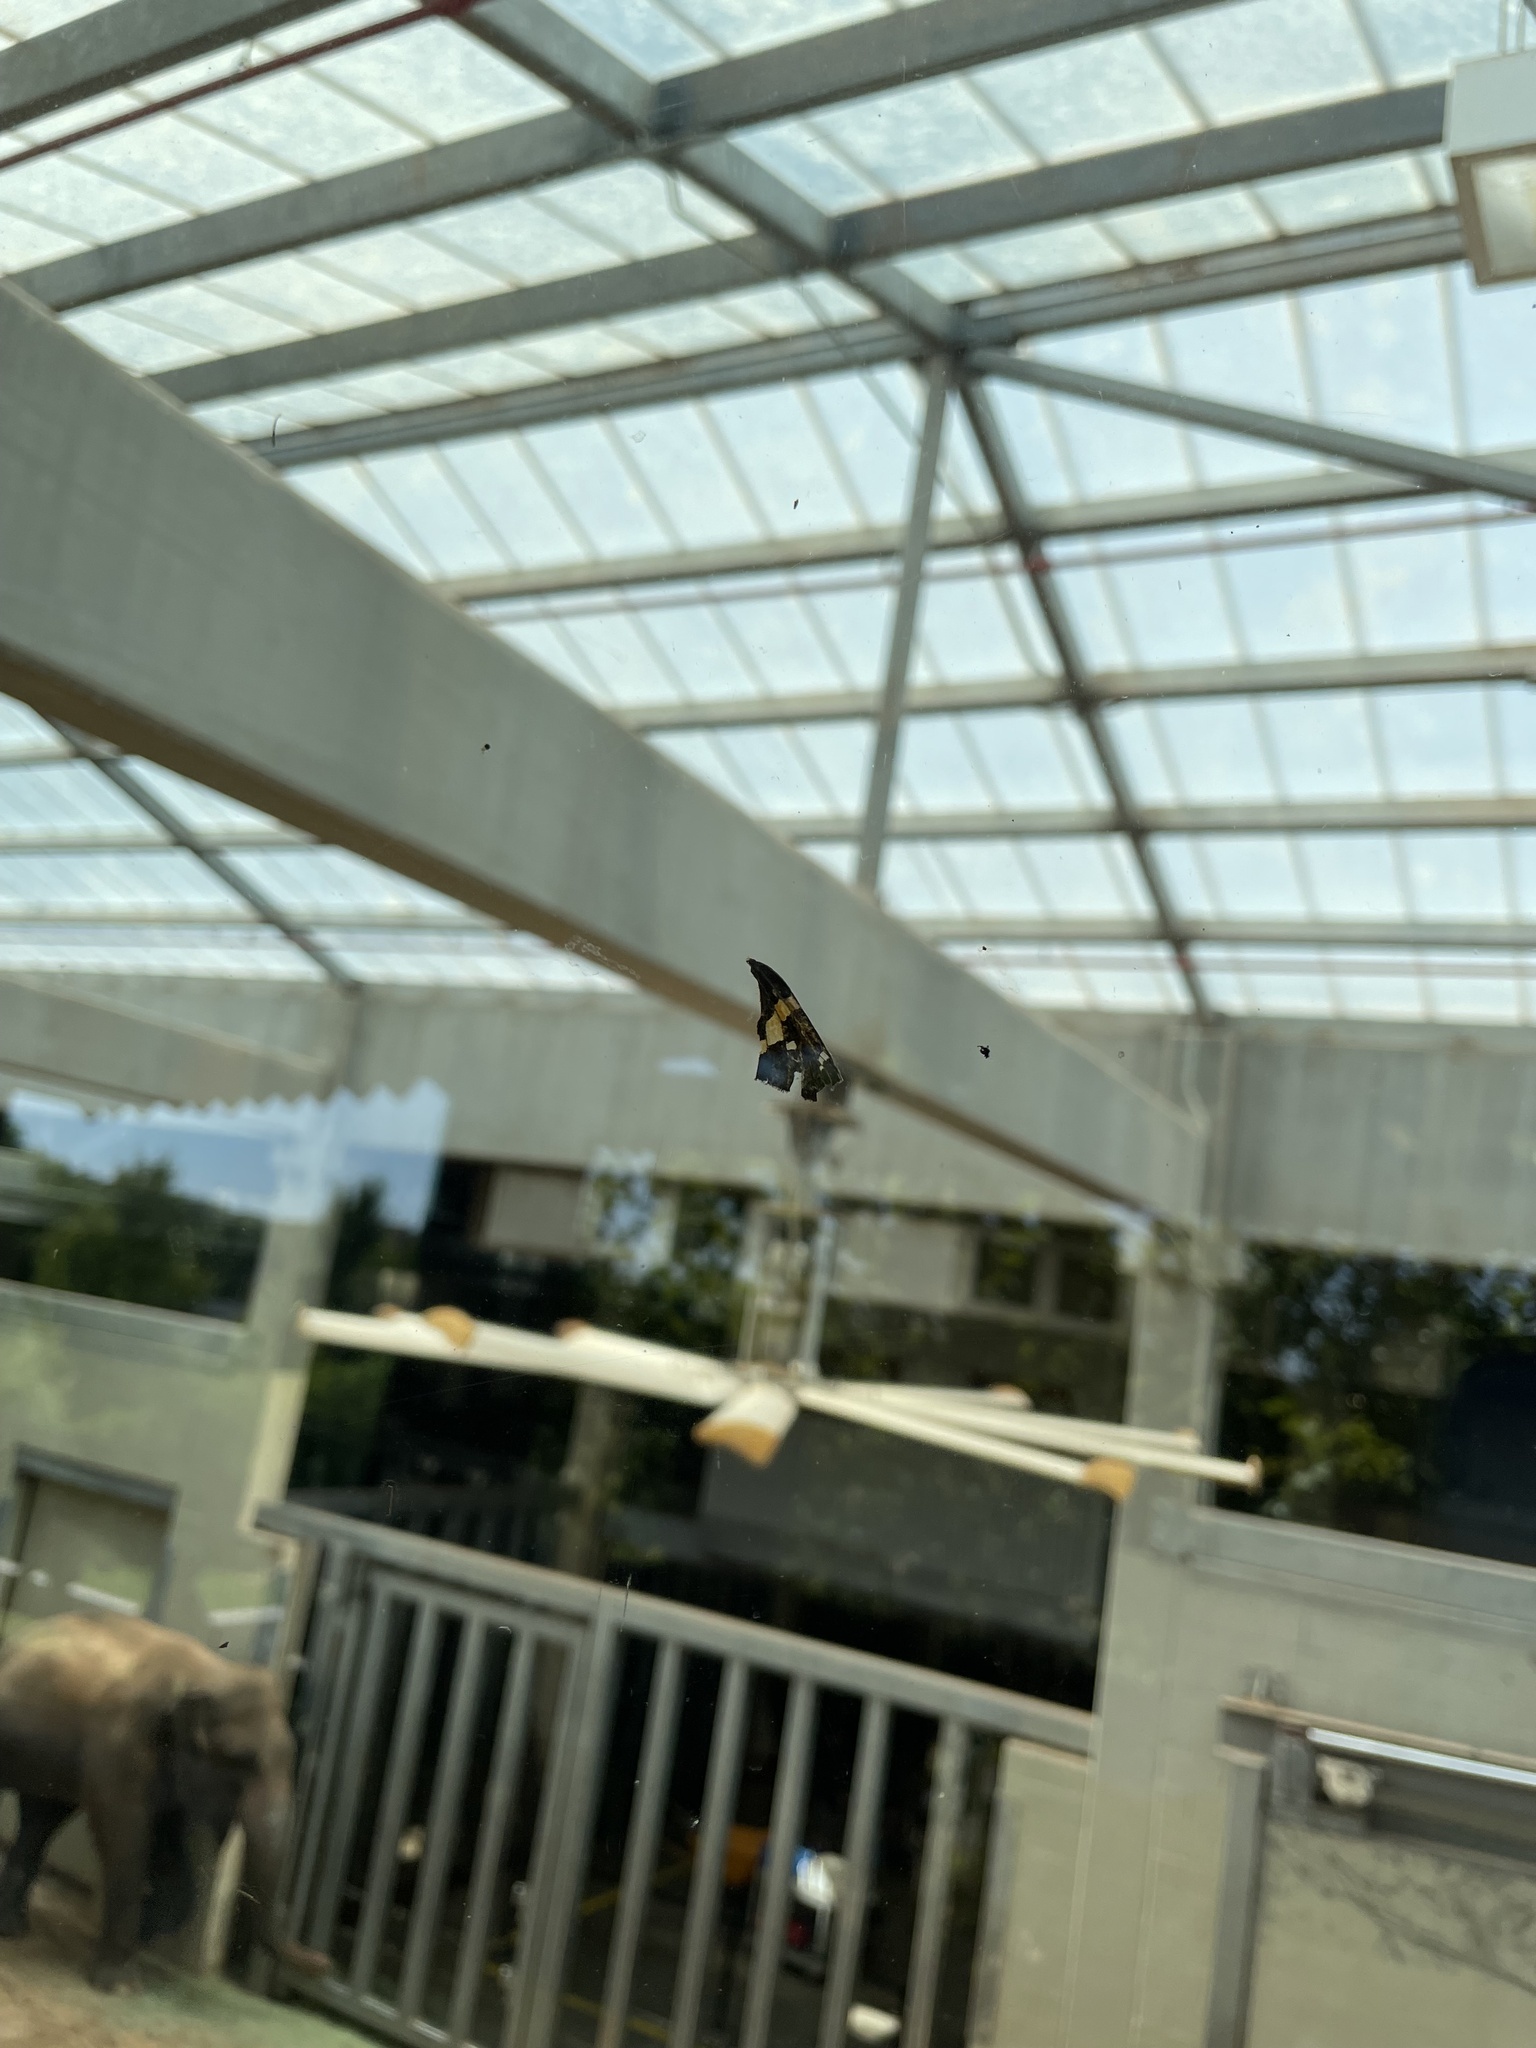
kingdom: Animalia
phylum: Arthropoda
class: Insecta
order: Lepidoptera
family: Hesperiidae
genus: Epargyreus
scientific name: Epargyreus clarus
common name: Silver-spotted skipper
